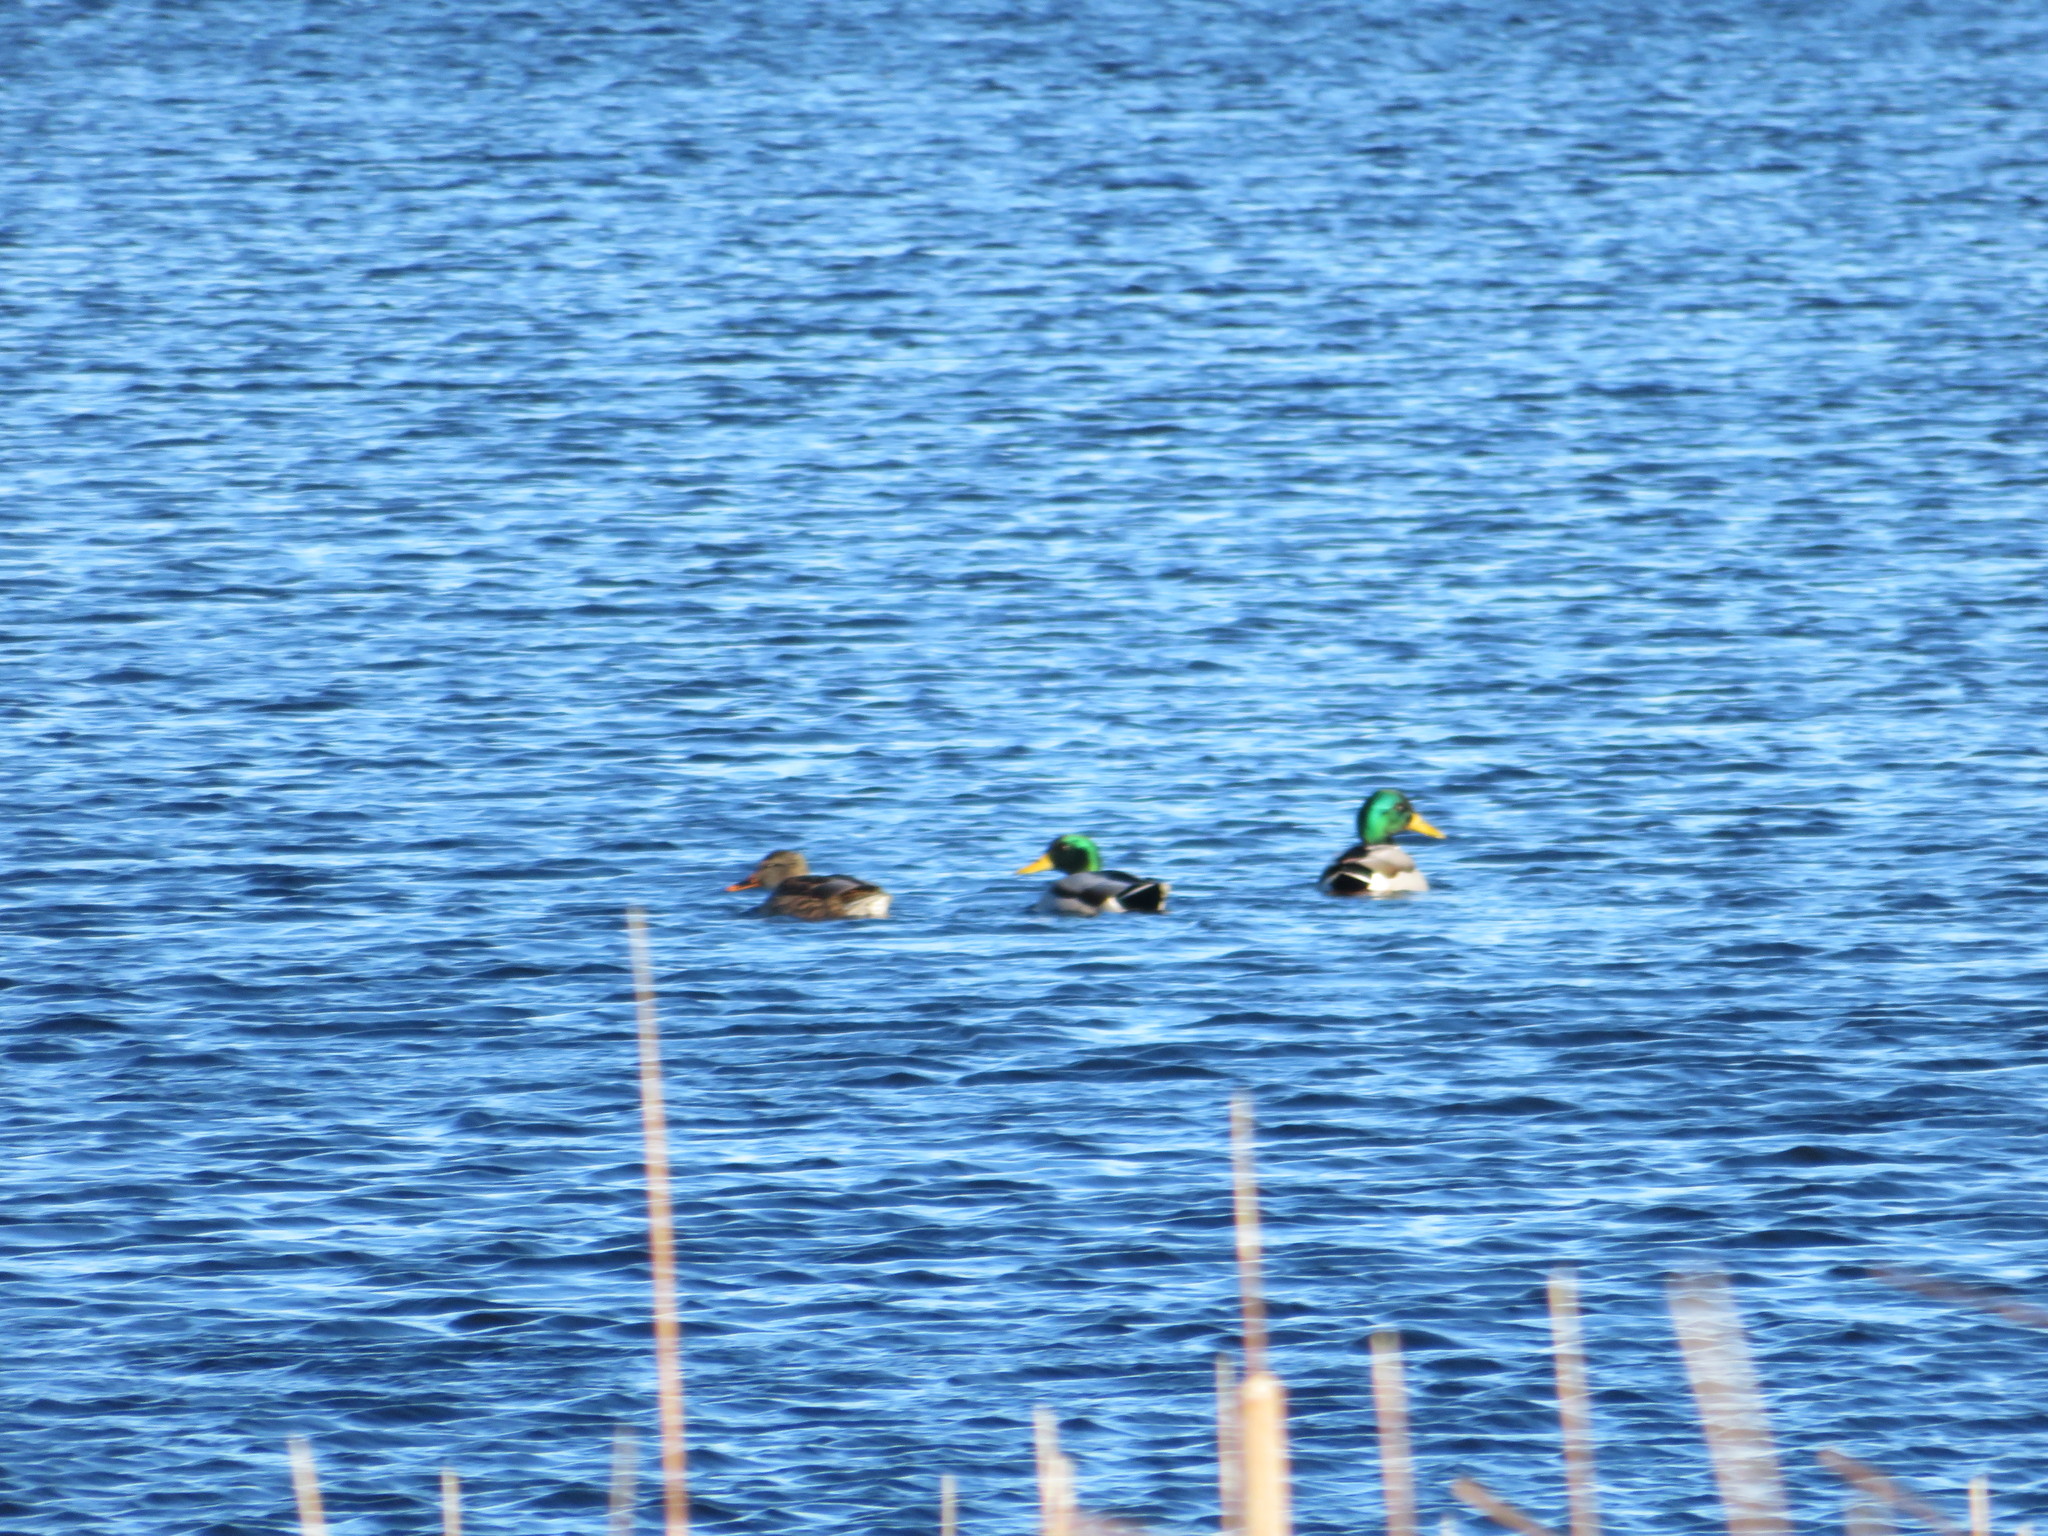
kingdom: Animalia
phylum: Chordata
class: Aves
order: Anseriformes
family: Anatidae
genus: Anas
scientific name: Anas platyrhynchos
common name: Mallard
